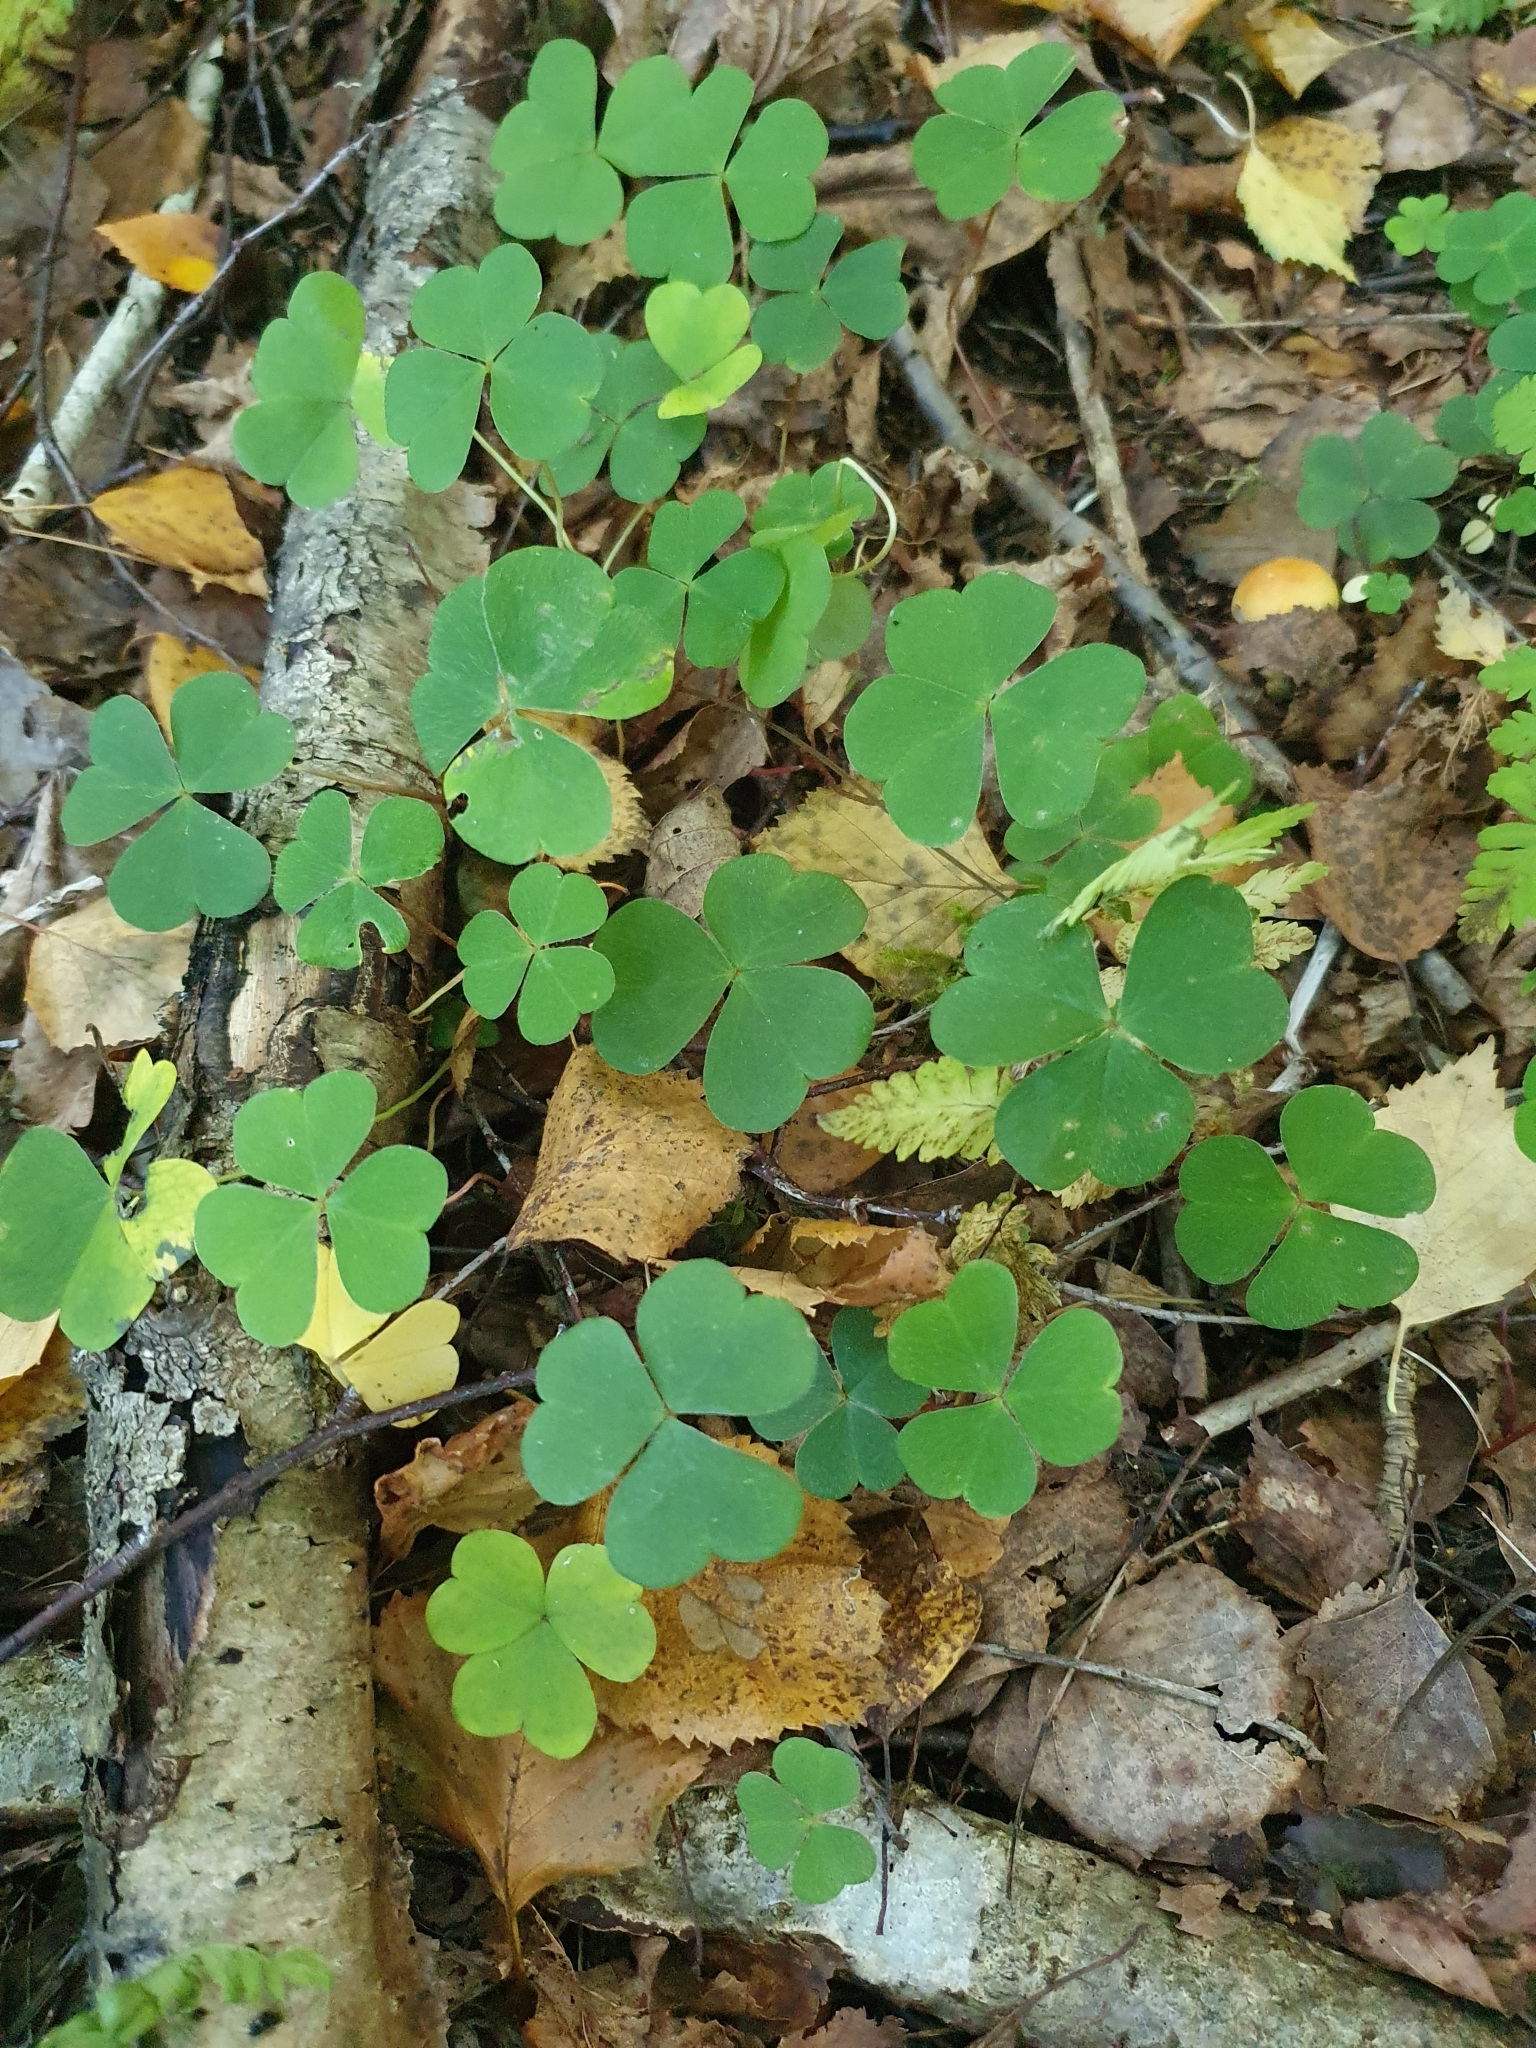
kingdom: Plantae
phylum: Tracheophyta
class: Magnoliopsida
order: Oxalidales
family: Oxalidaceae
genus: Oxalis
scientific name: Oxalis acetosella
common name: Wood-sorrel
